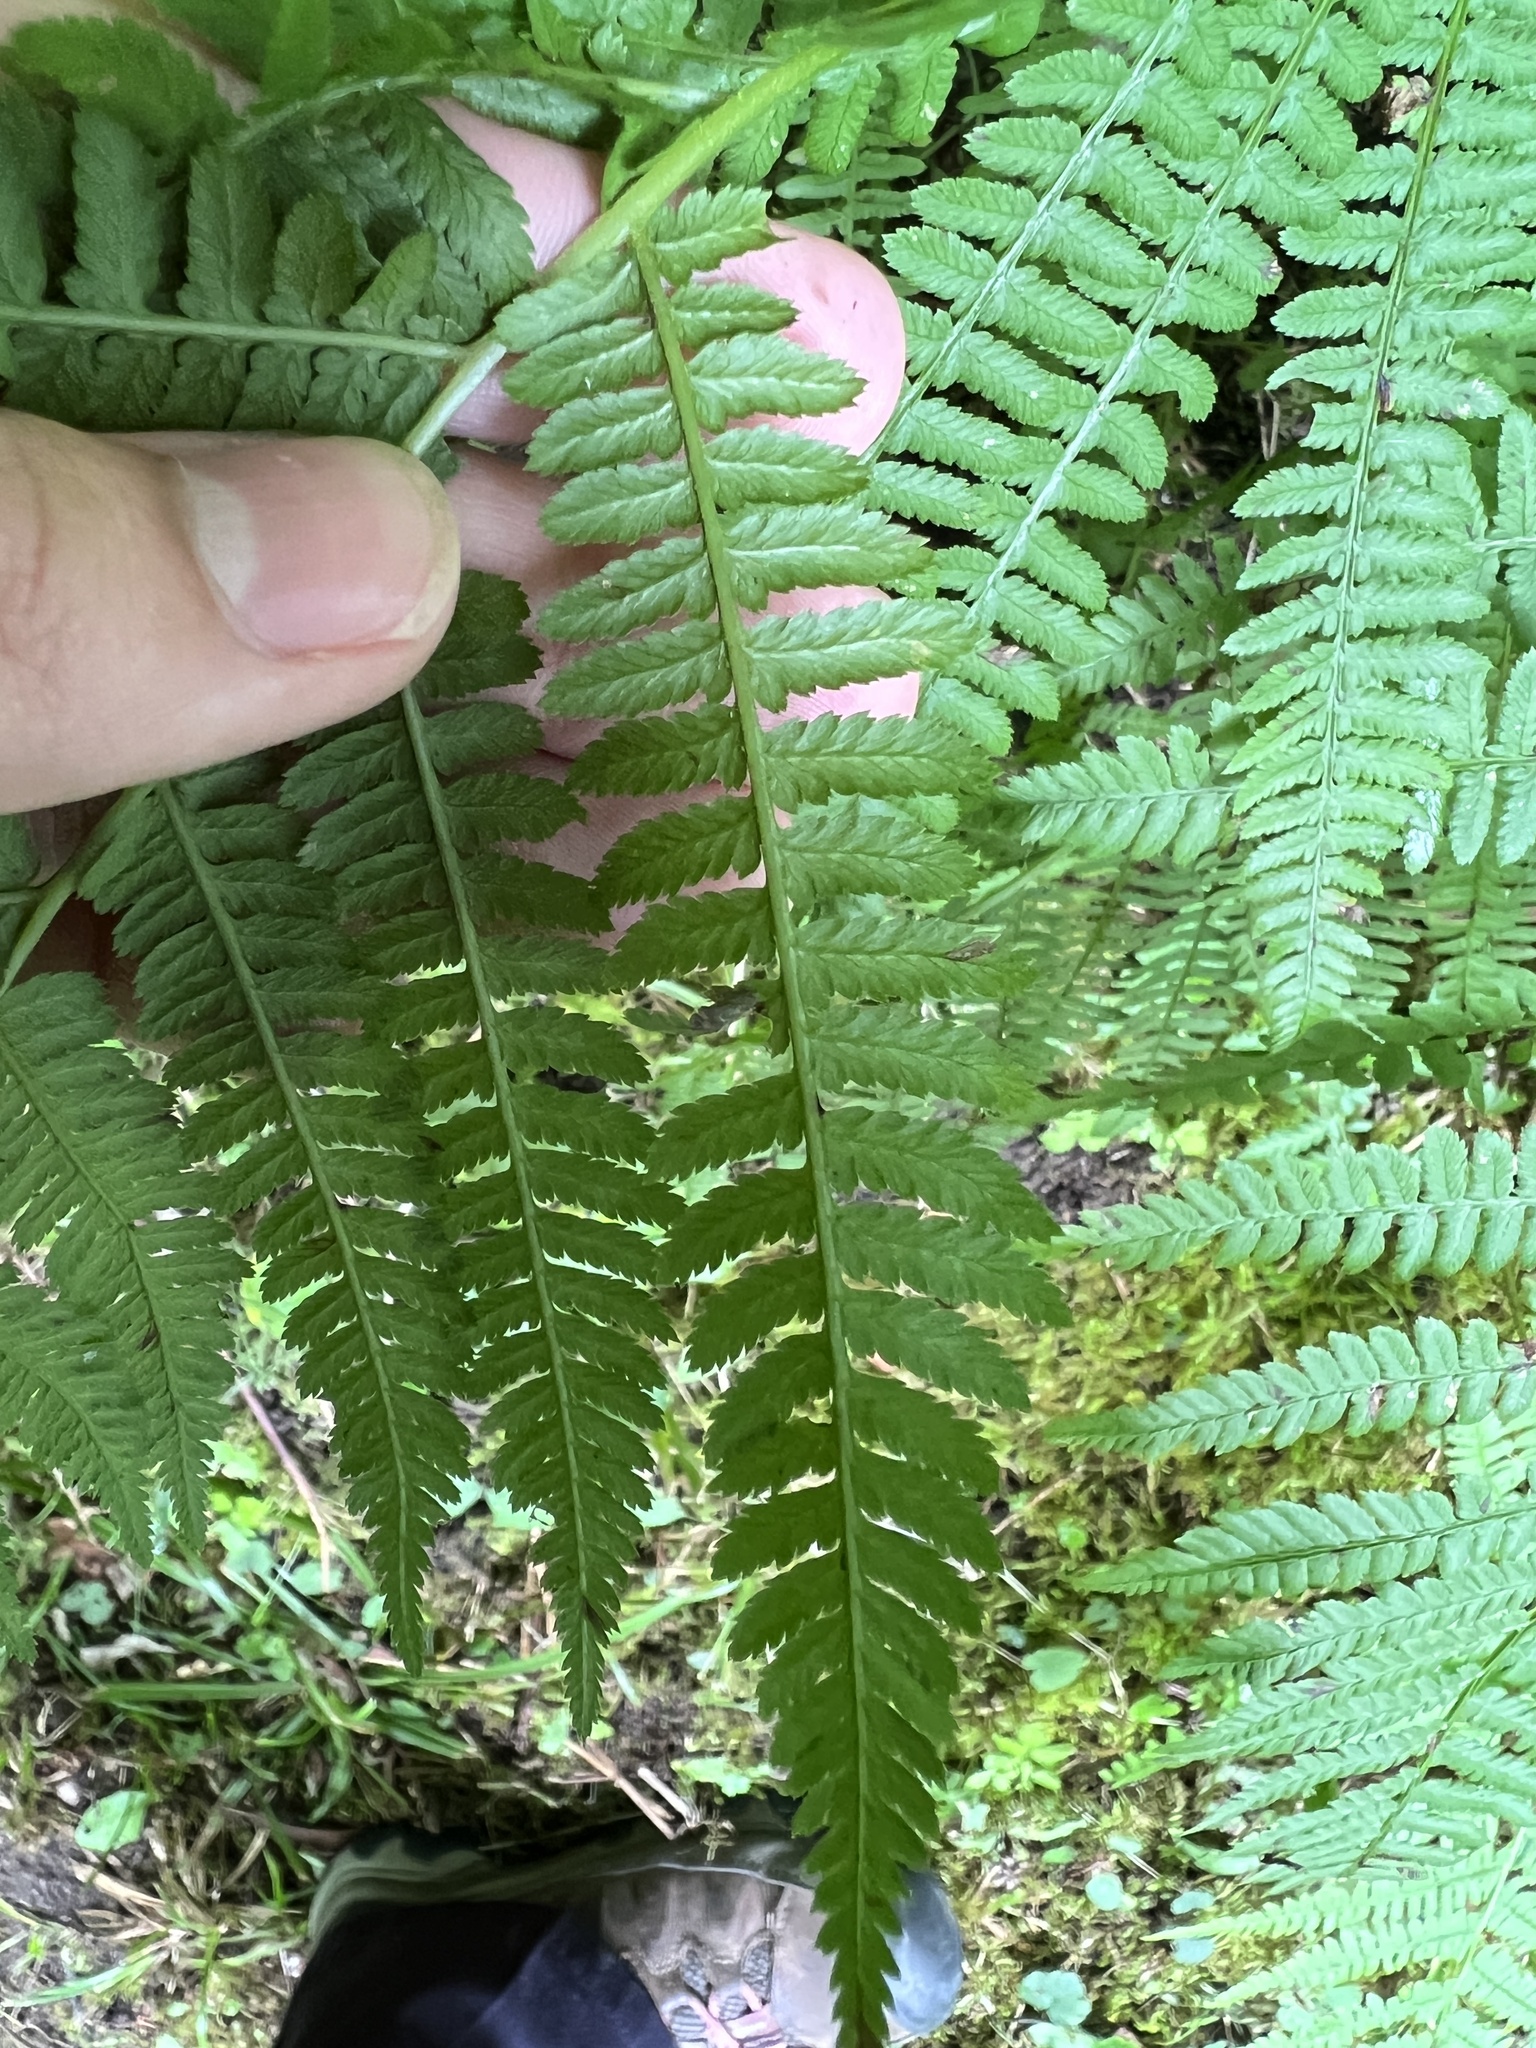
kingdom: Plantae
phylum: Tracheophyta
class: Polypodiopsida
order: Polypodiales
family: Athyriaceae
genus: Athyrium
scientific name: Athyrium angustum
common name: Northern lady fern
